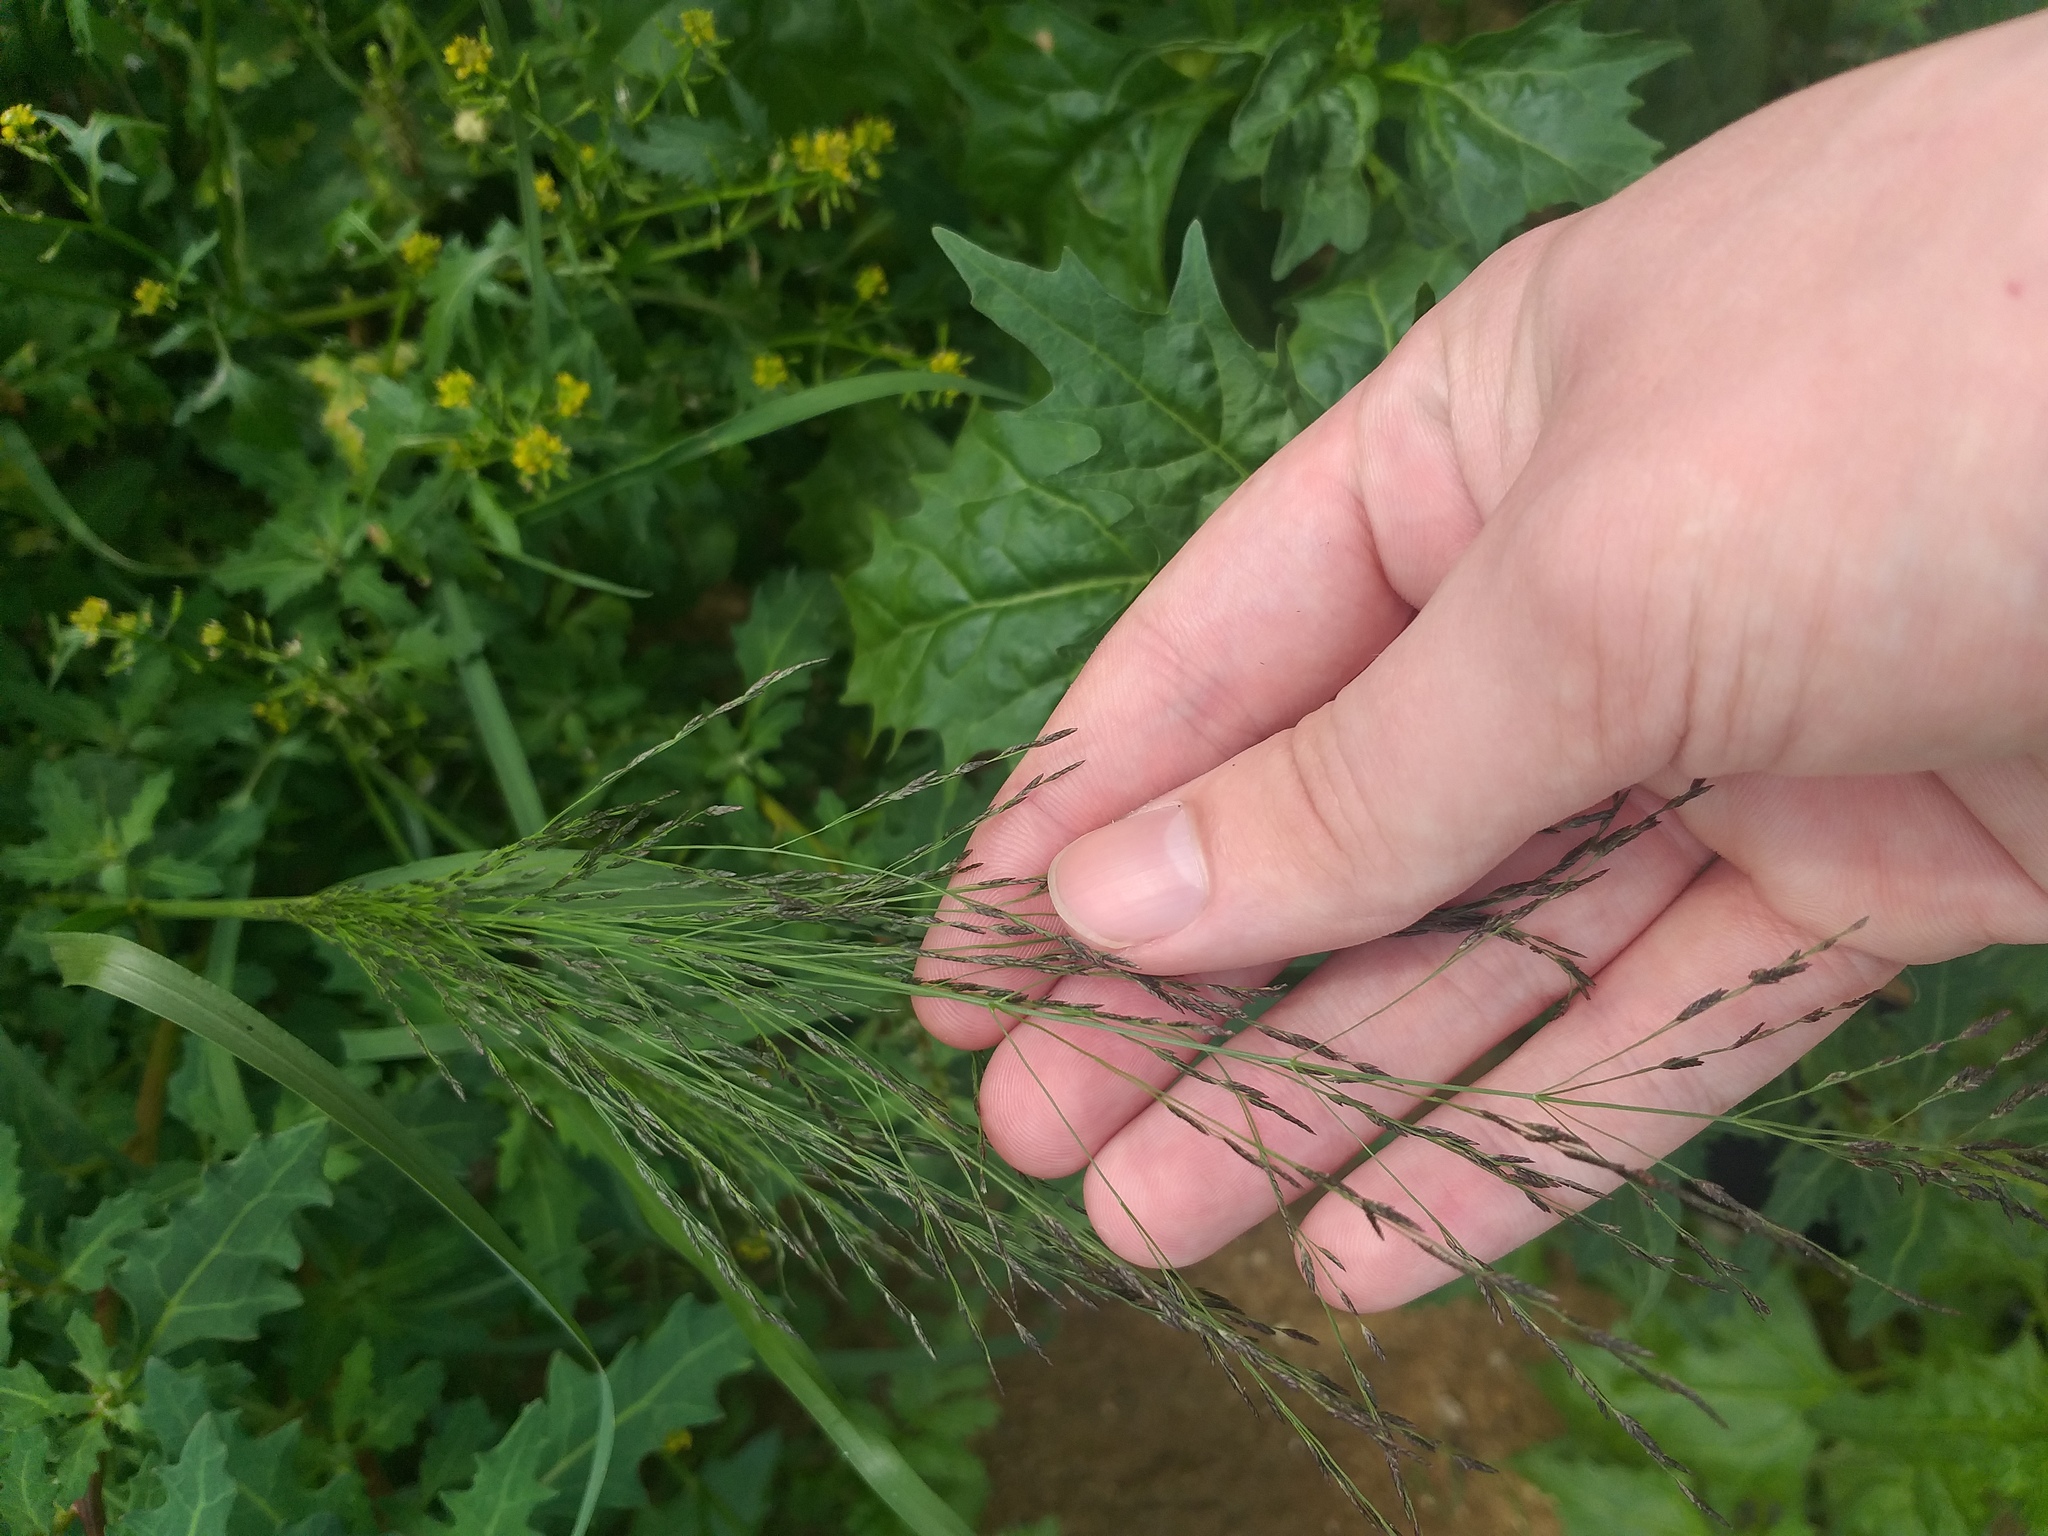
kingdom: Plantae
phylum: Tracheophyta
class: Liliopsida
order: Poales
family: Poaceae
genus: Eragrostis
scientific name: Eragrostis pilosa
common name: Indian lovegrass
